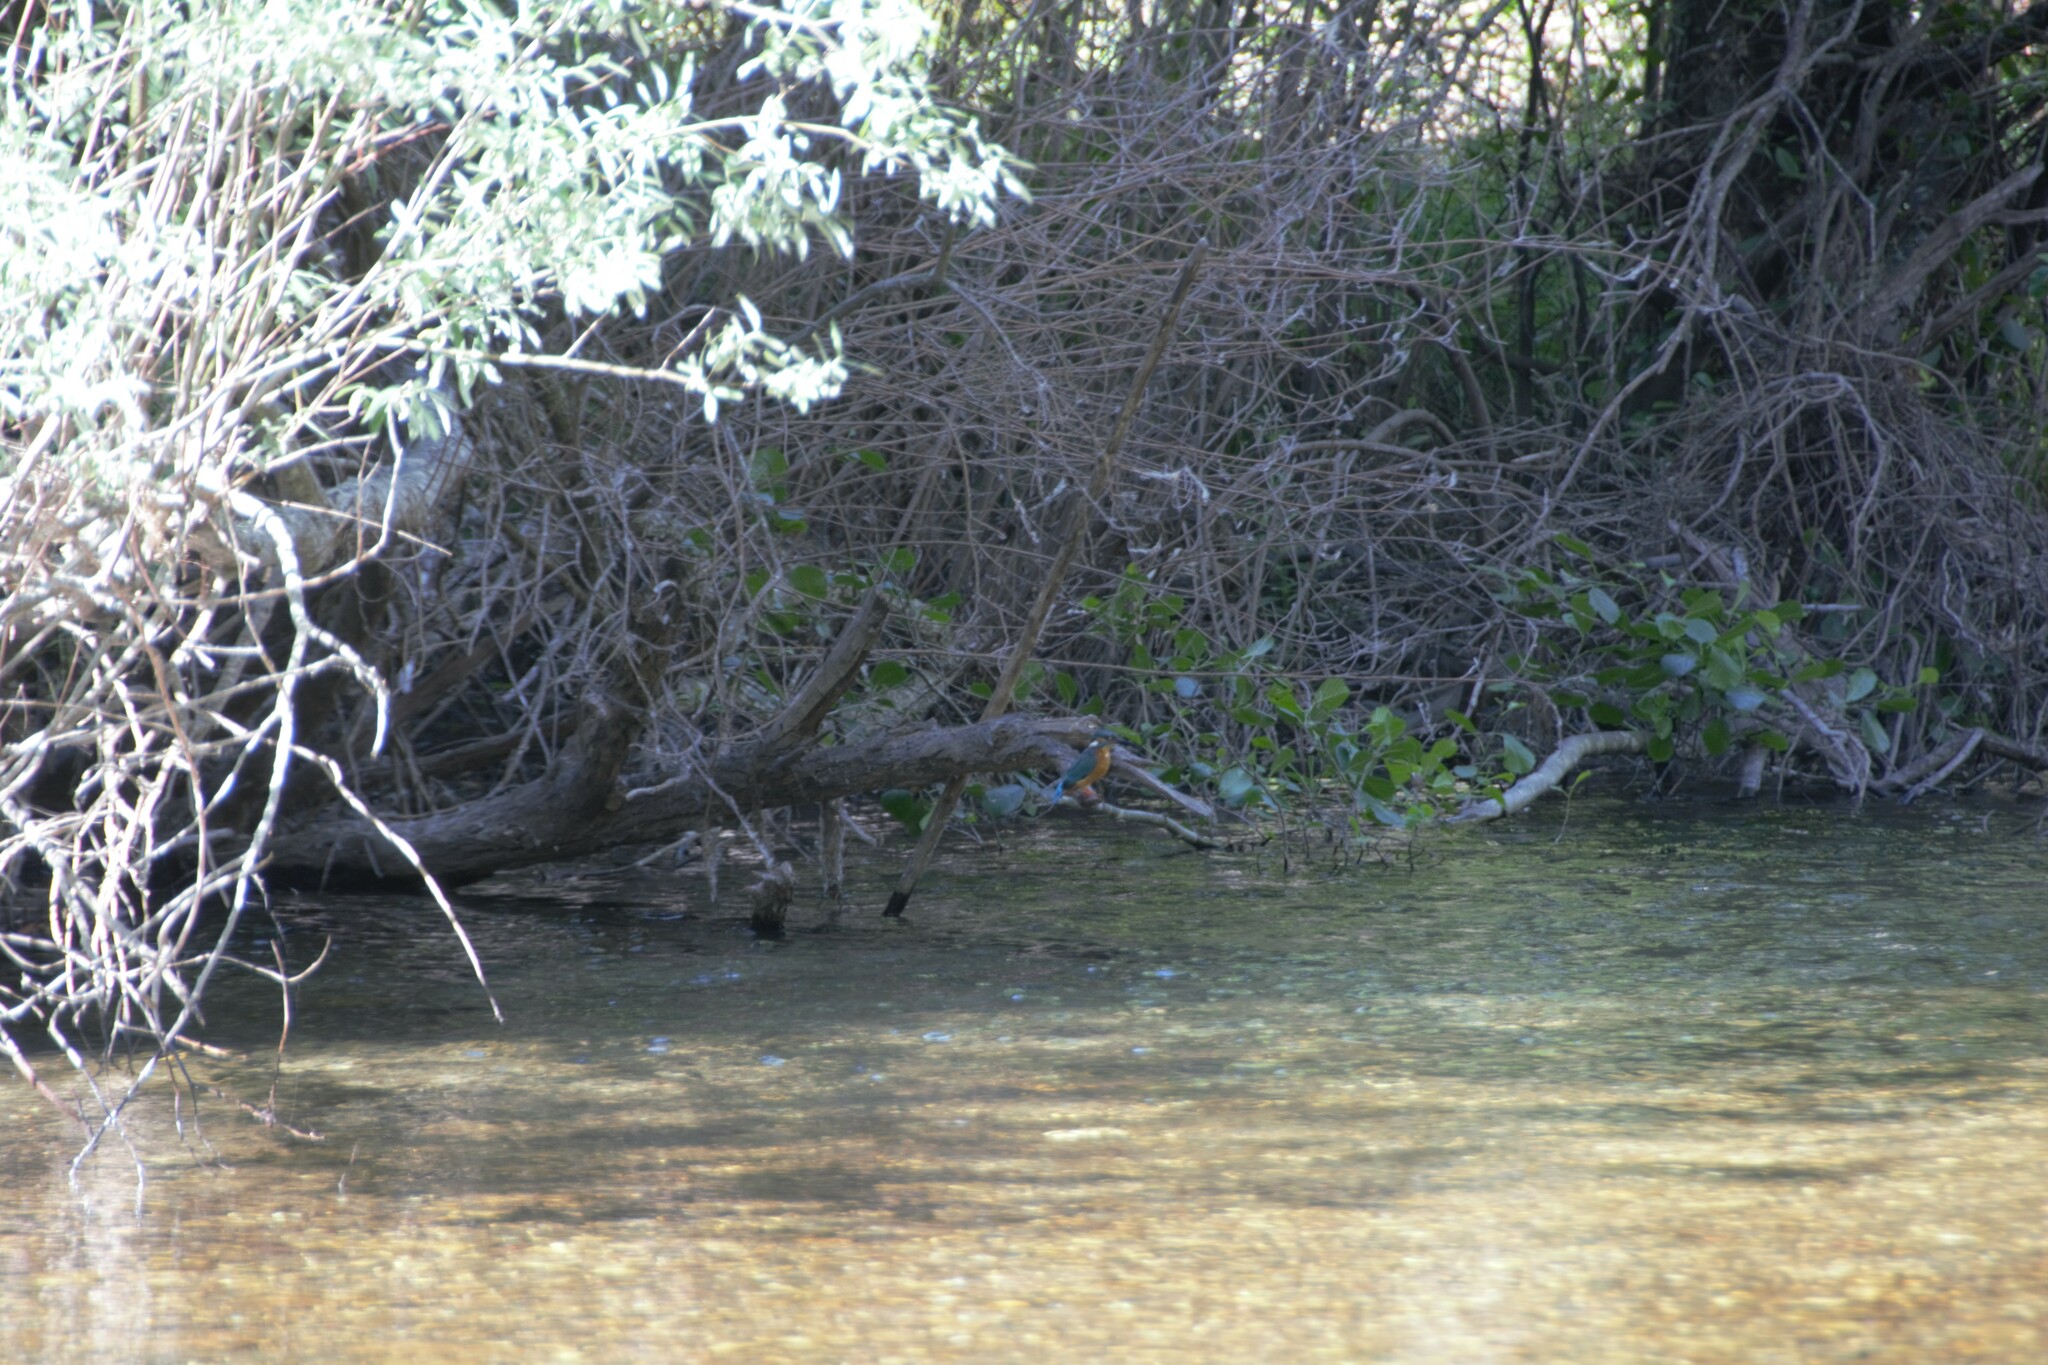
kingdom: Animalia
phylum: Chordata
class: Aves
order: Coraciiformes
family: Alcedinidae
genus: Alcedo
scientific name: Alcedo atthis
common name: Common kingfisher
